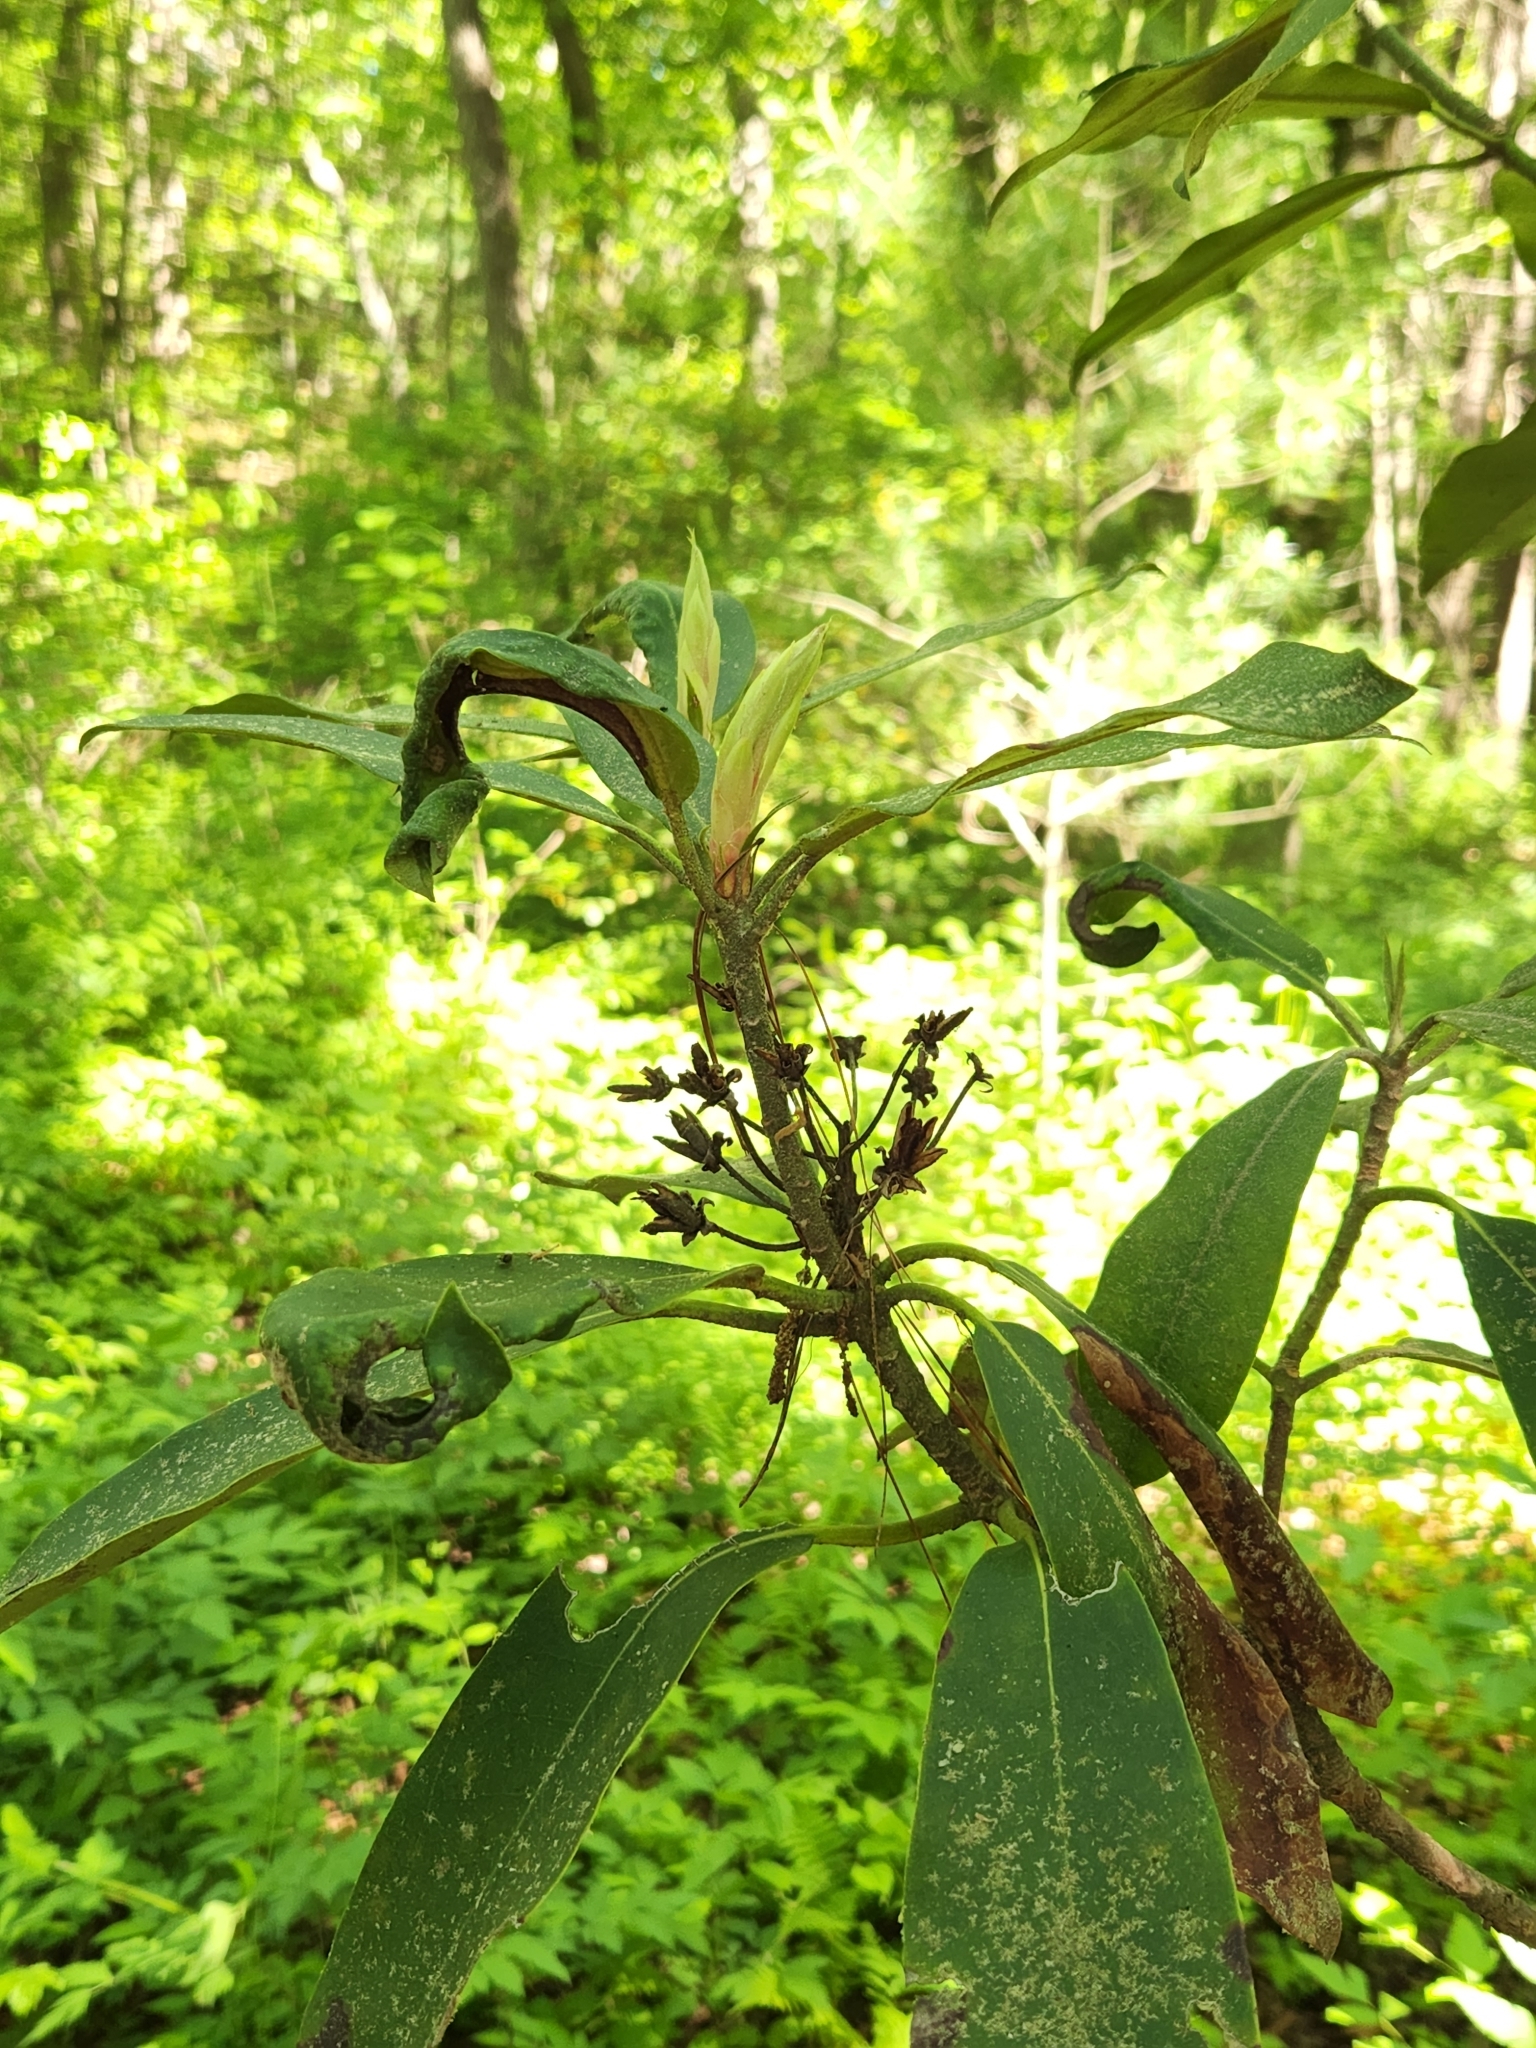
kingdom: Plantae
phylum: Tracheophyta
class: Magnoliopsida
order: Ericales
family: Ericaceae
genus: Rhododendron
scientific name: Rhododendron maximum
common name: Great rhododendron
